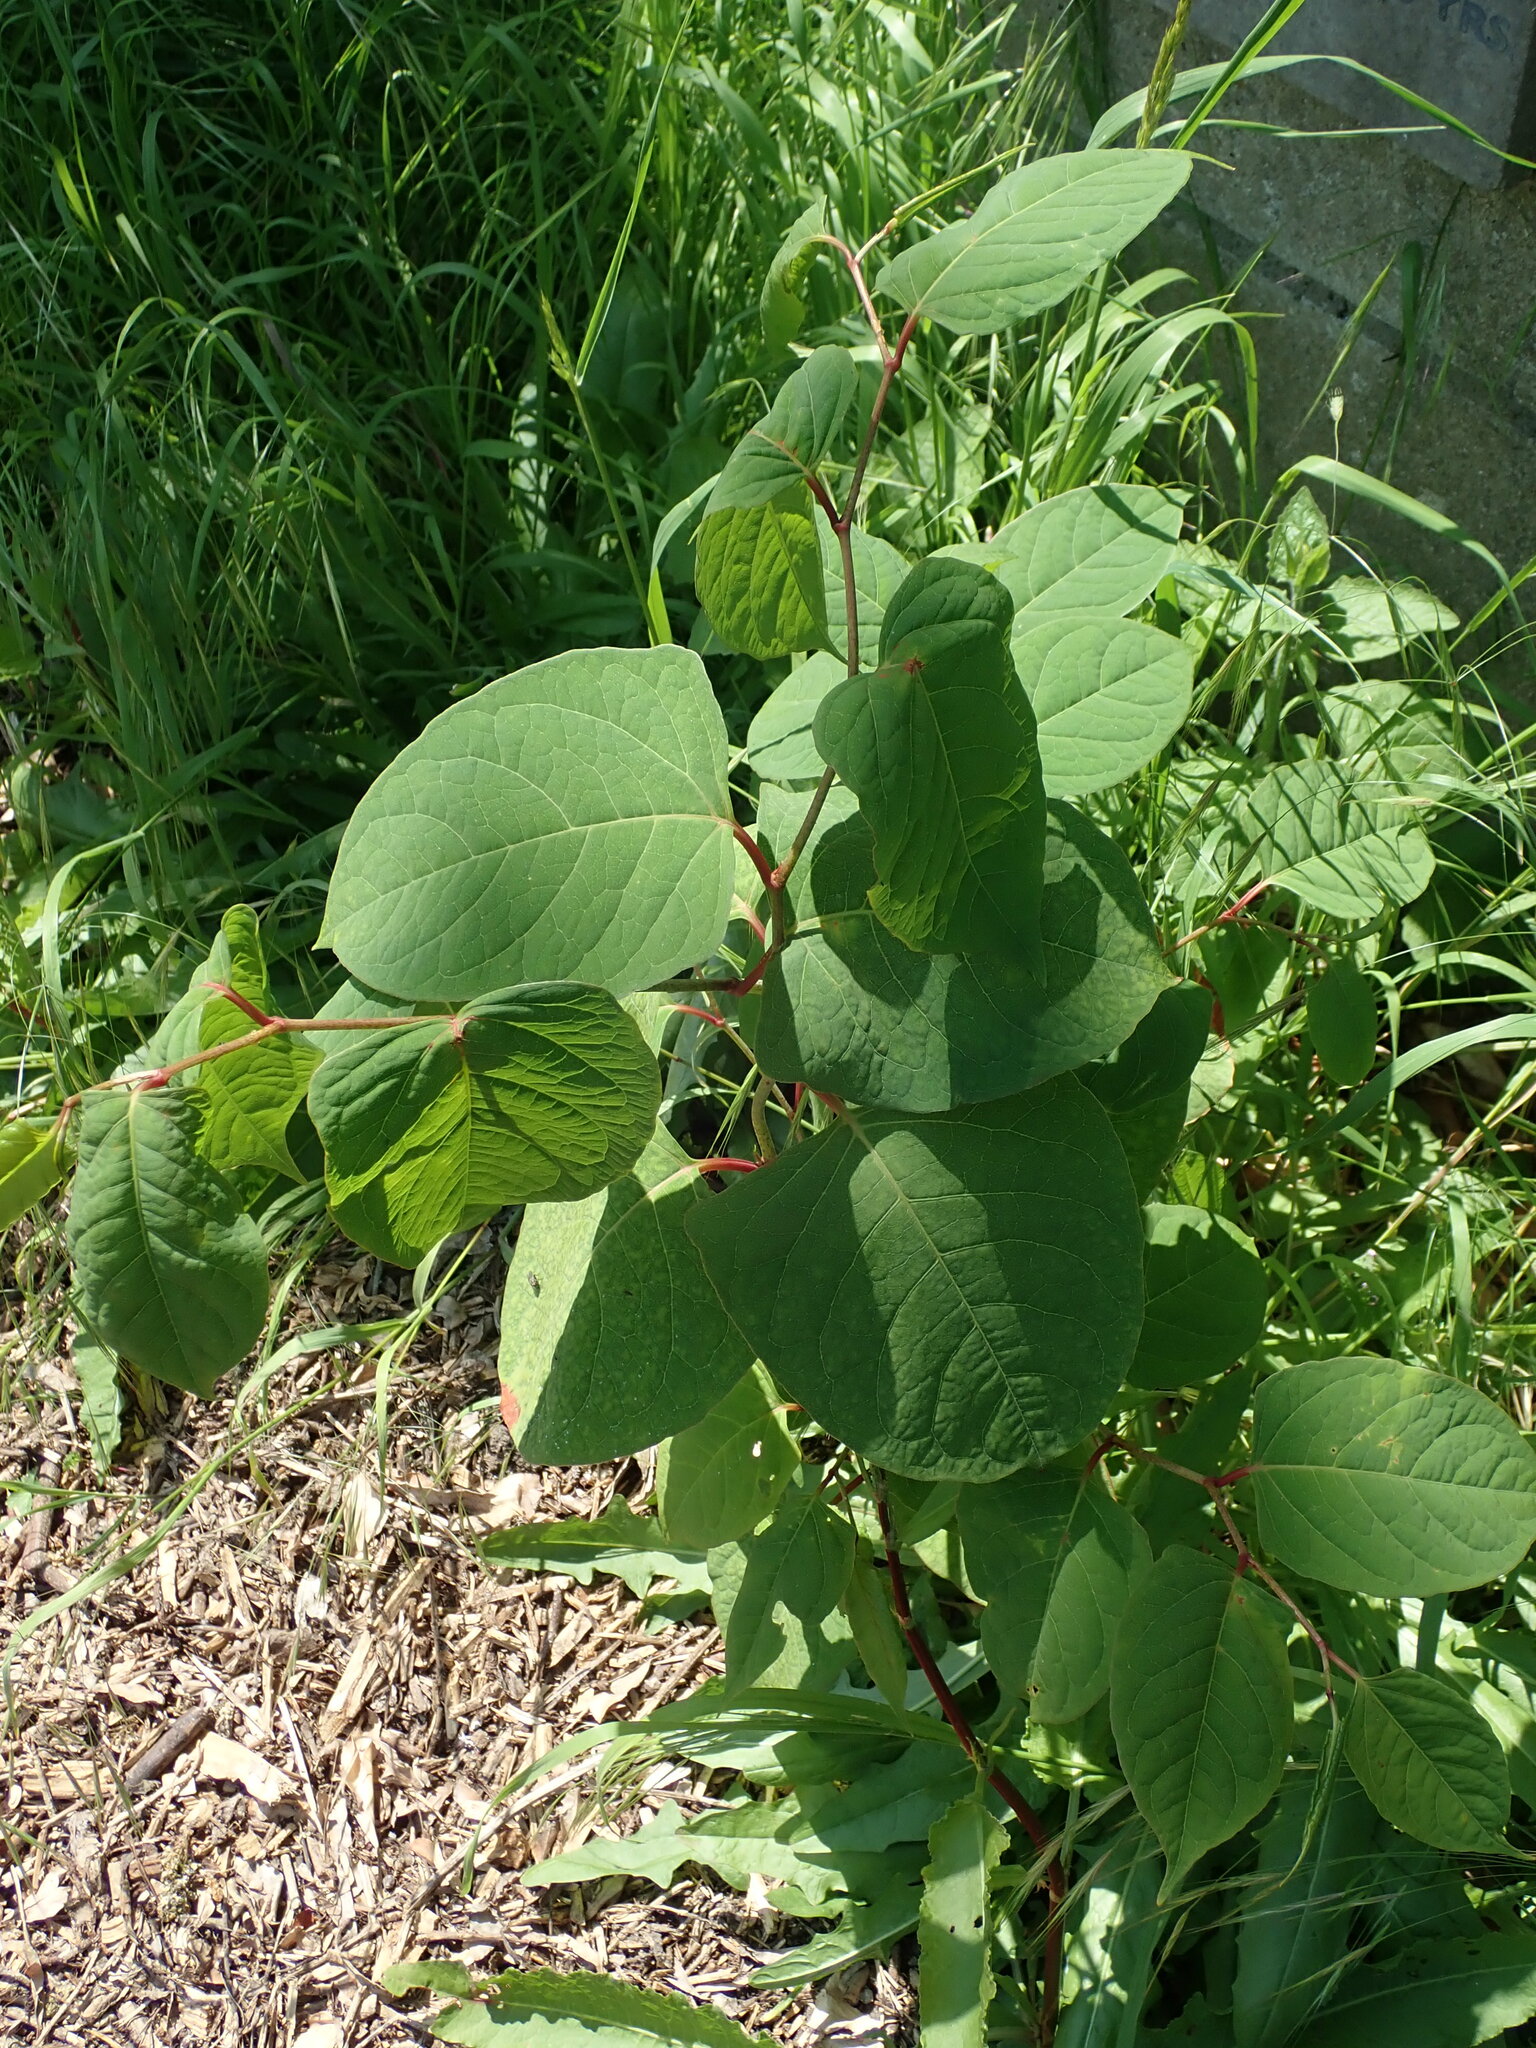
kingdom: Plantae
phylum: Tracheophyta
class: Magnoliopsida
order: Caryophyllales
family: Polygonaceae
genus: Reynoutria
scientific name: Reynoutria japonica
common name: Japanese knotweed
